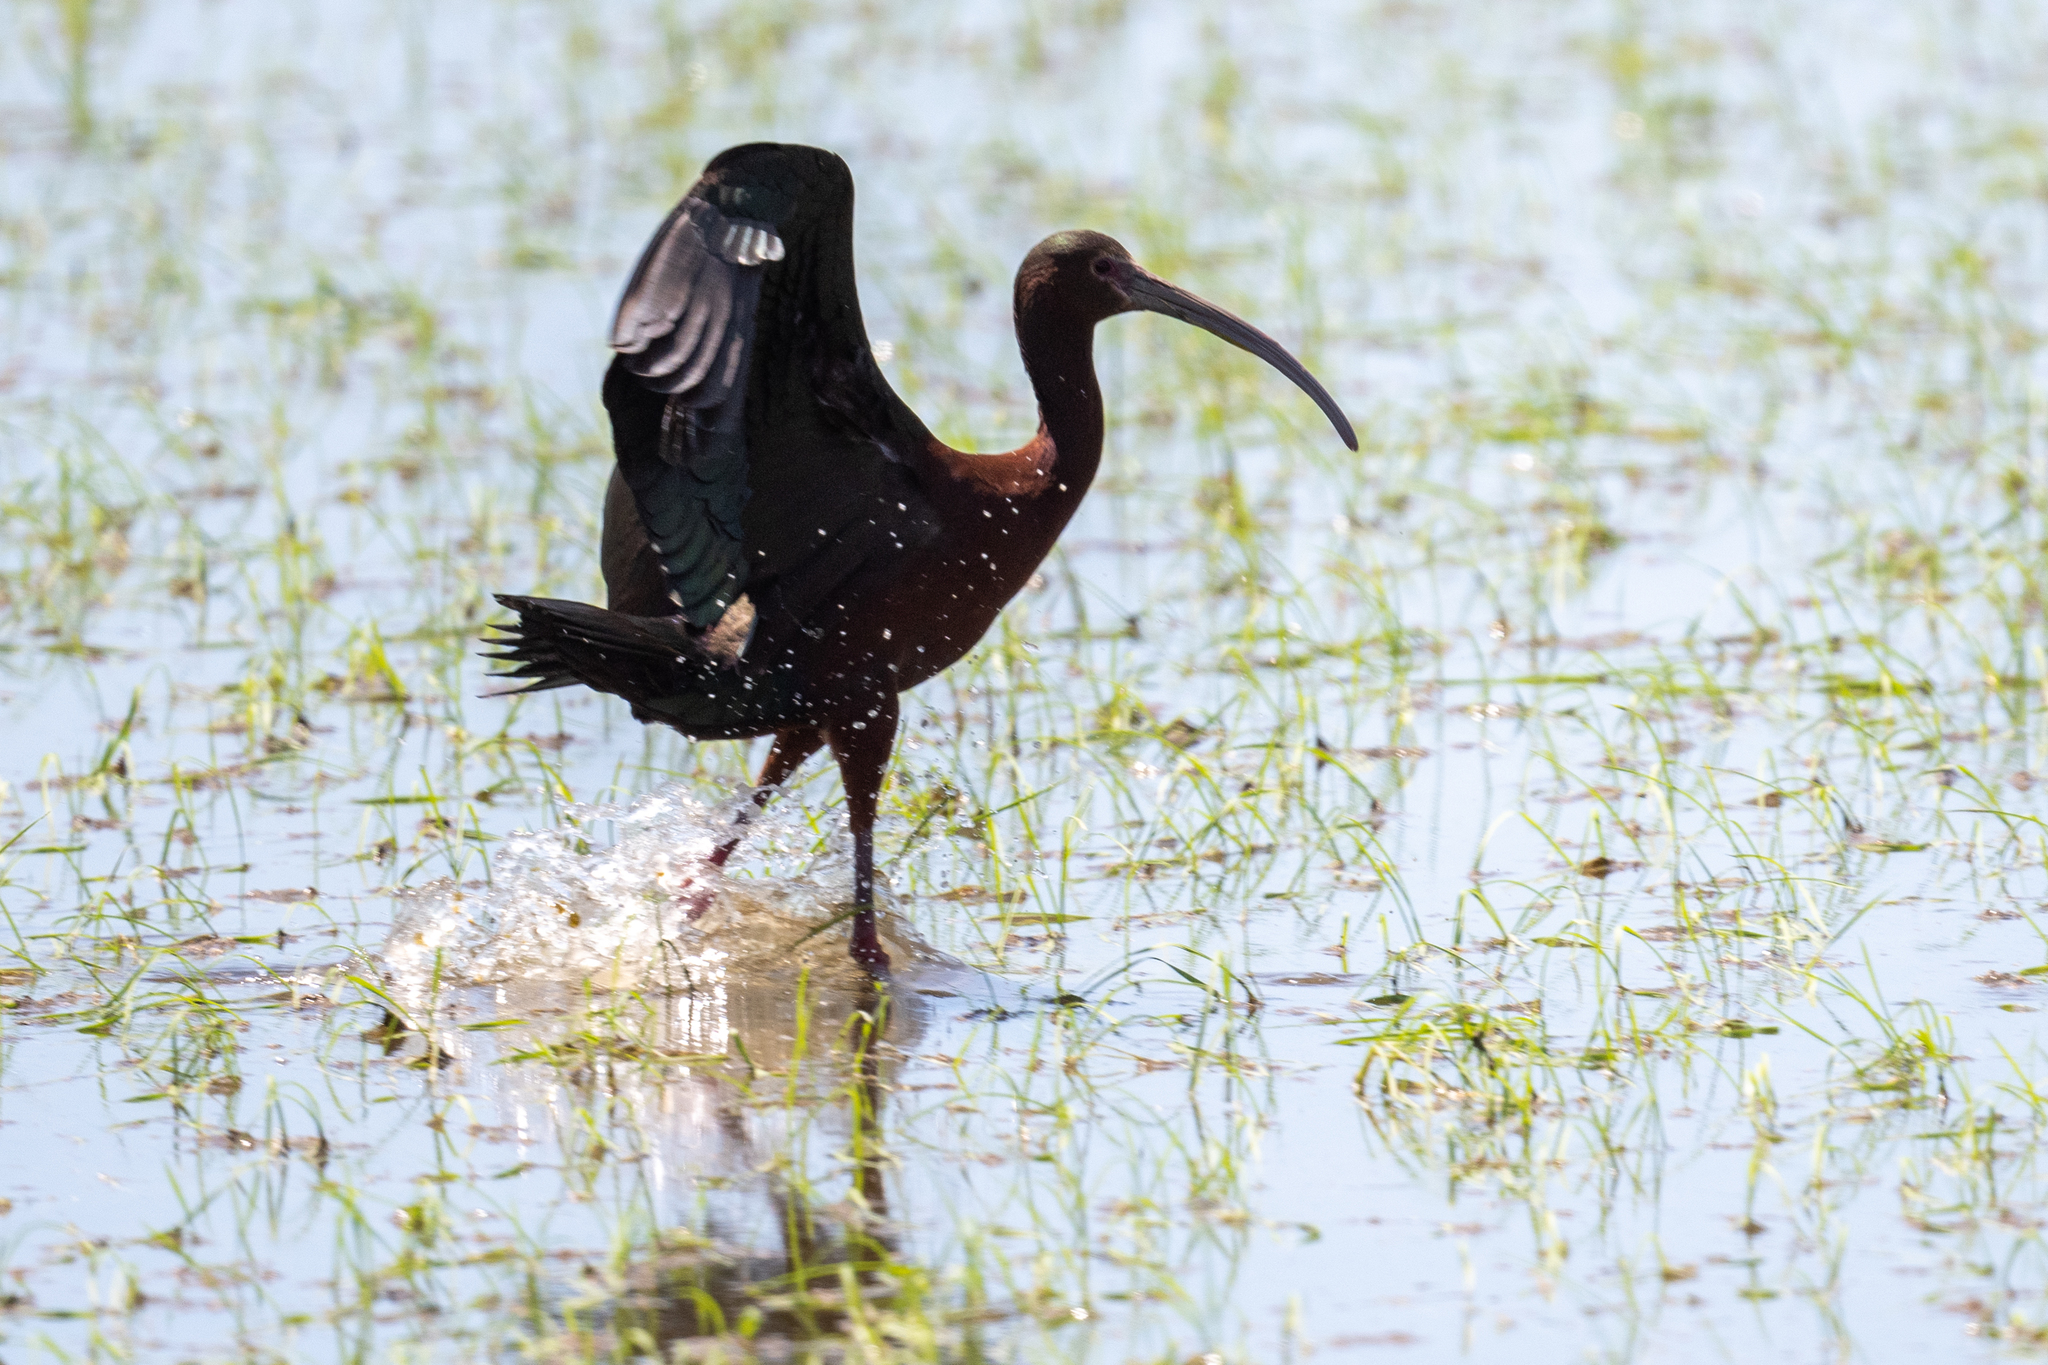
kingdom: Animalia
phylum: Chordata
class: Aves
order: Pelecaniformes
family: Threskiornithidae
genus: Plegadis
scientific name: Plegadis chihi
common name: White-faced ibis
